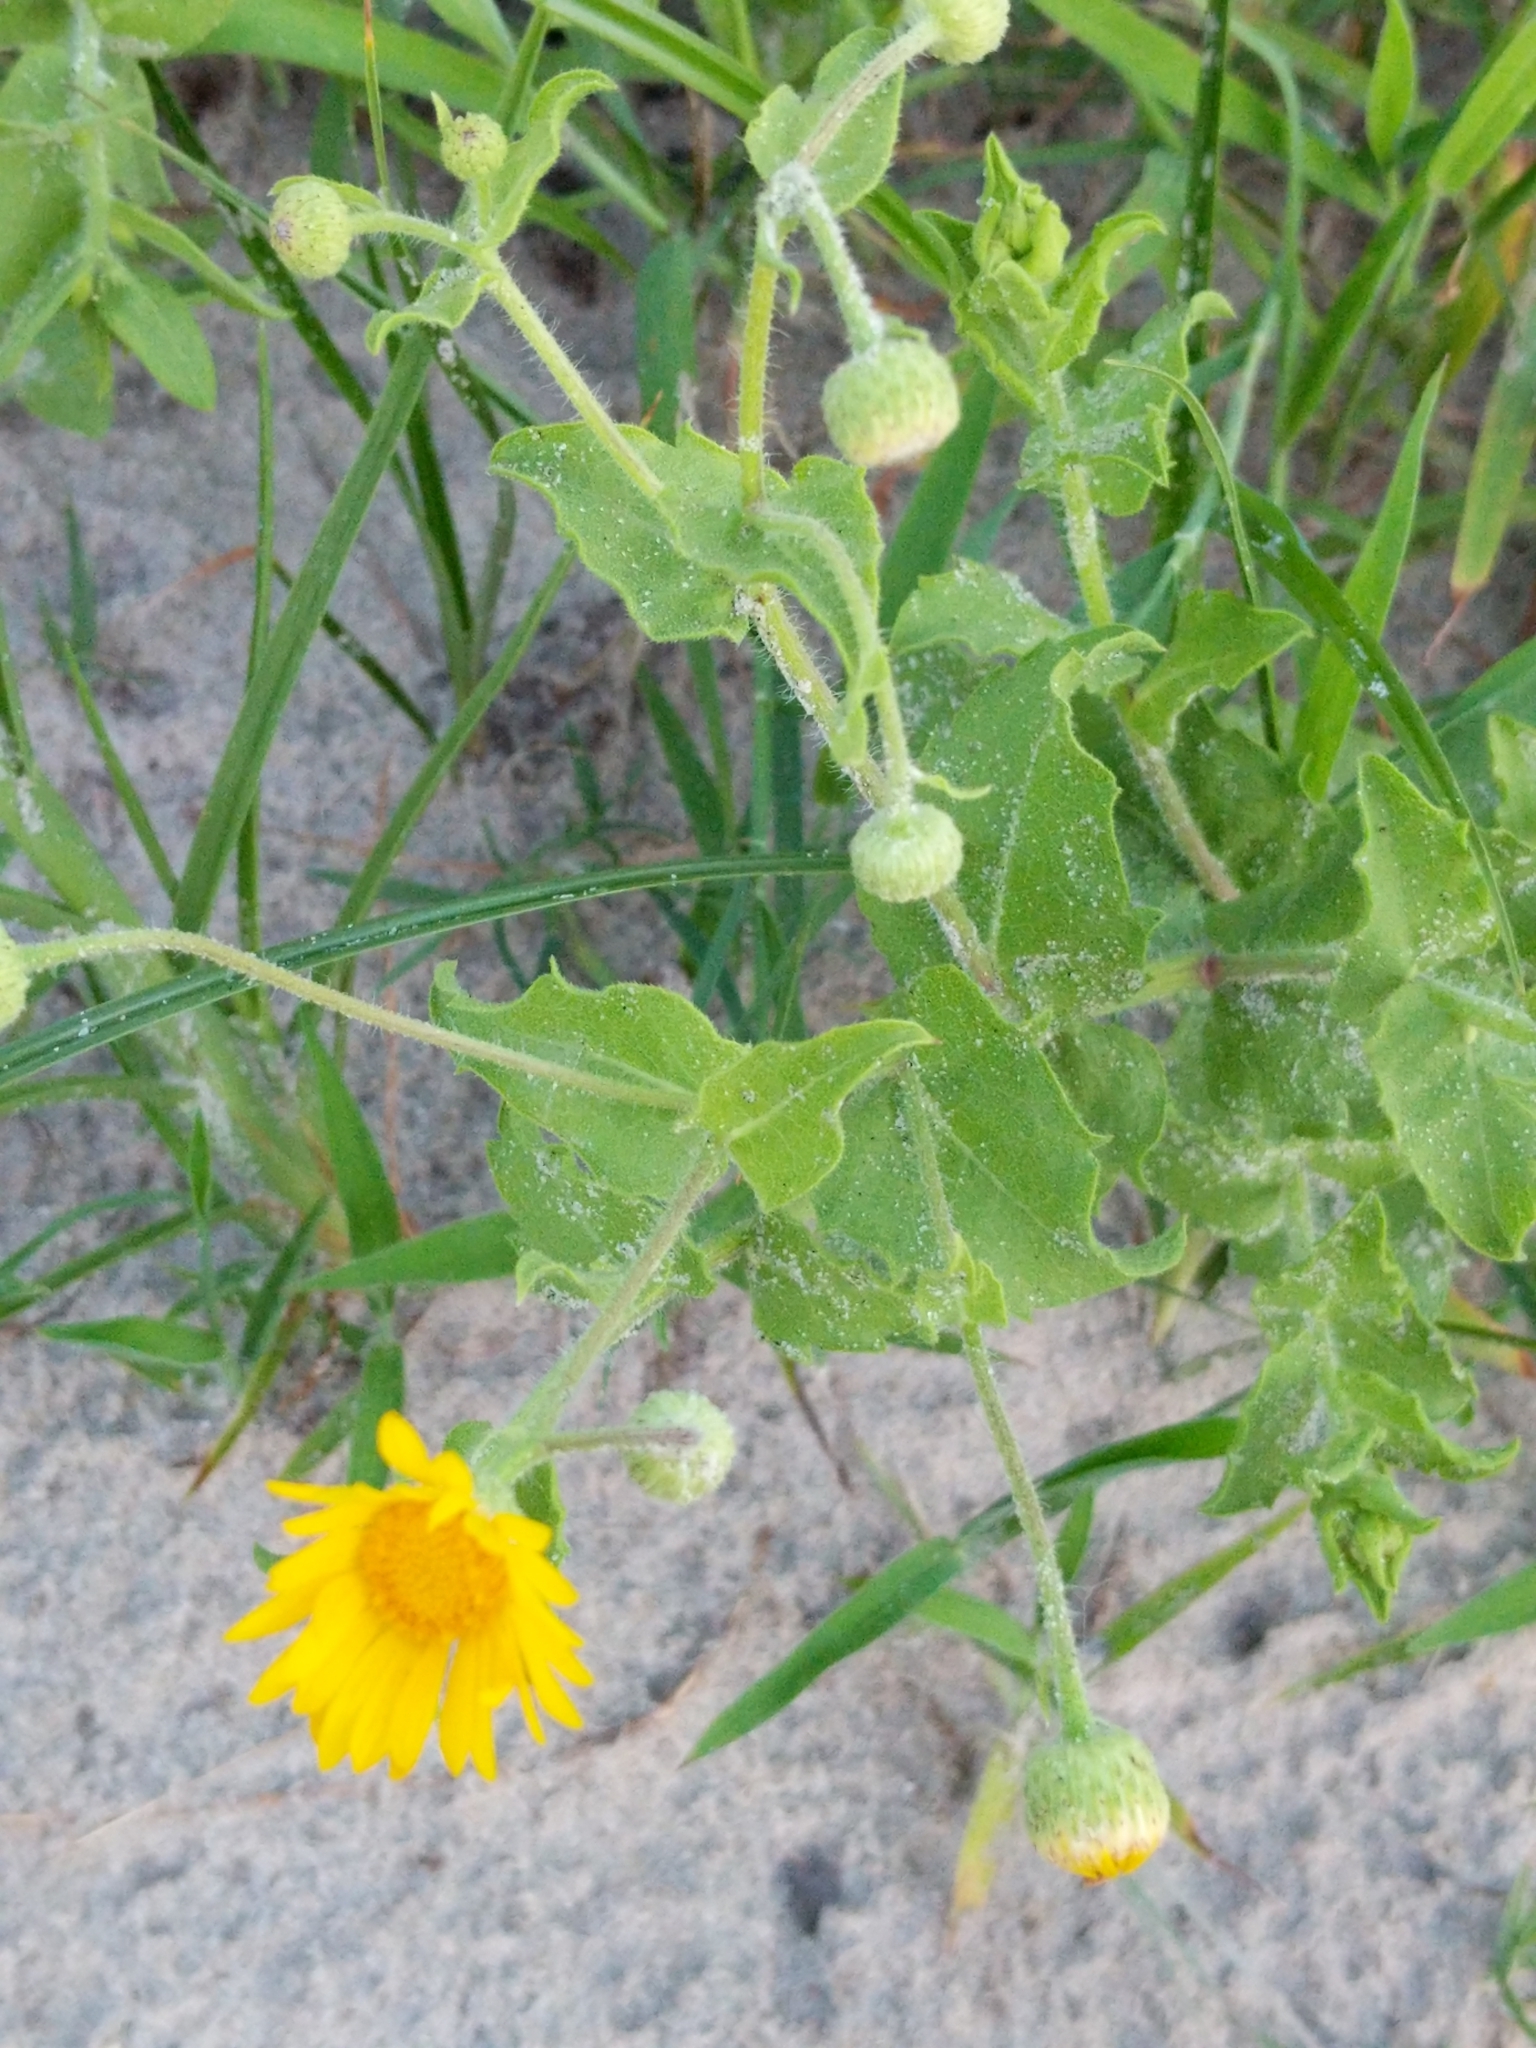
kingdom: Plantae
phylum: Tracheophyta
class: Magnoliopsida
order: Asterales
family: Asteraceae
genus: Heterotheca
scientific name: Heterotheca subaxillaris
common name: Camphorweed
